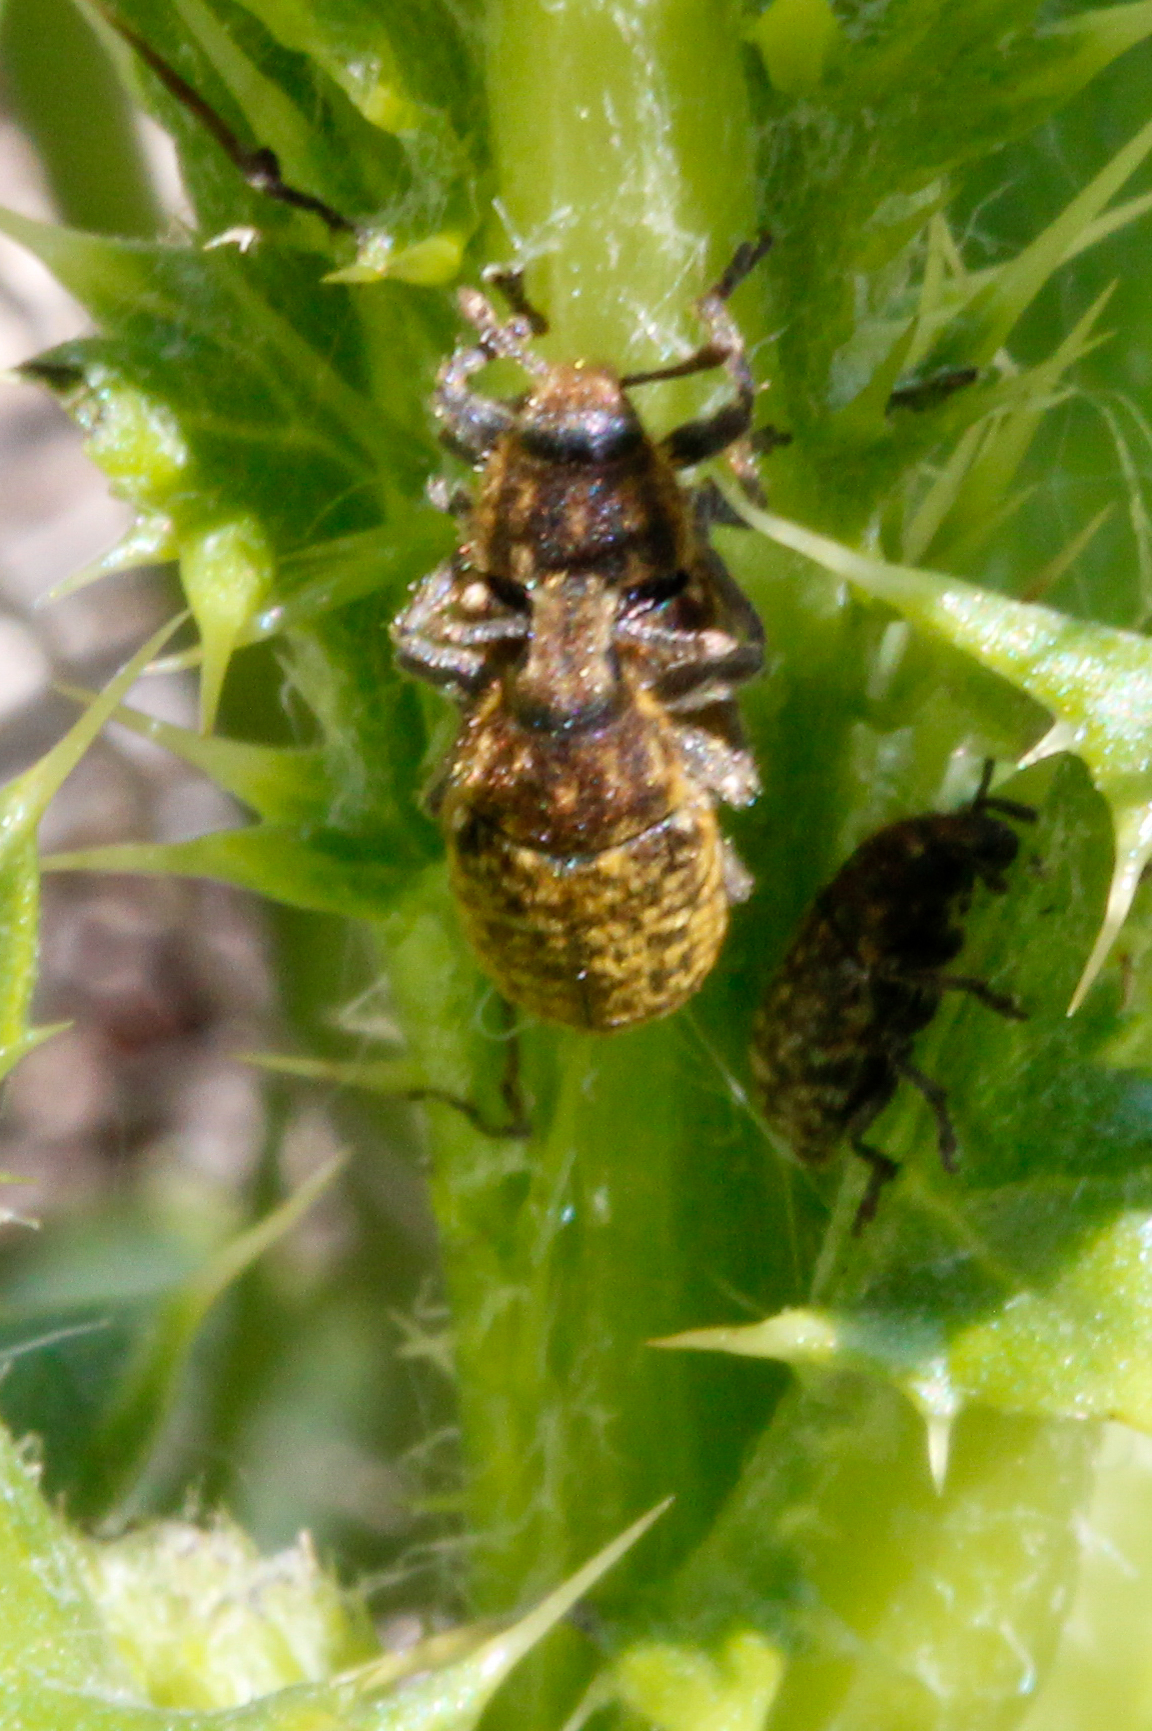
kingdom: Animalia
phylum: Arthropoda
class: Insecta
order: Coleoptera
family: Curculionidae
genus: Rhinocyllus
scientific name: Rhinocyllus conicus
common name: Weevil
